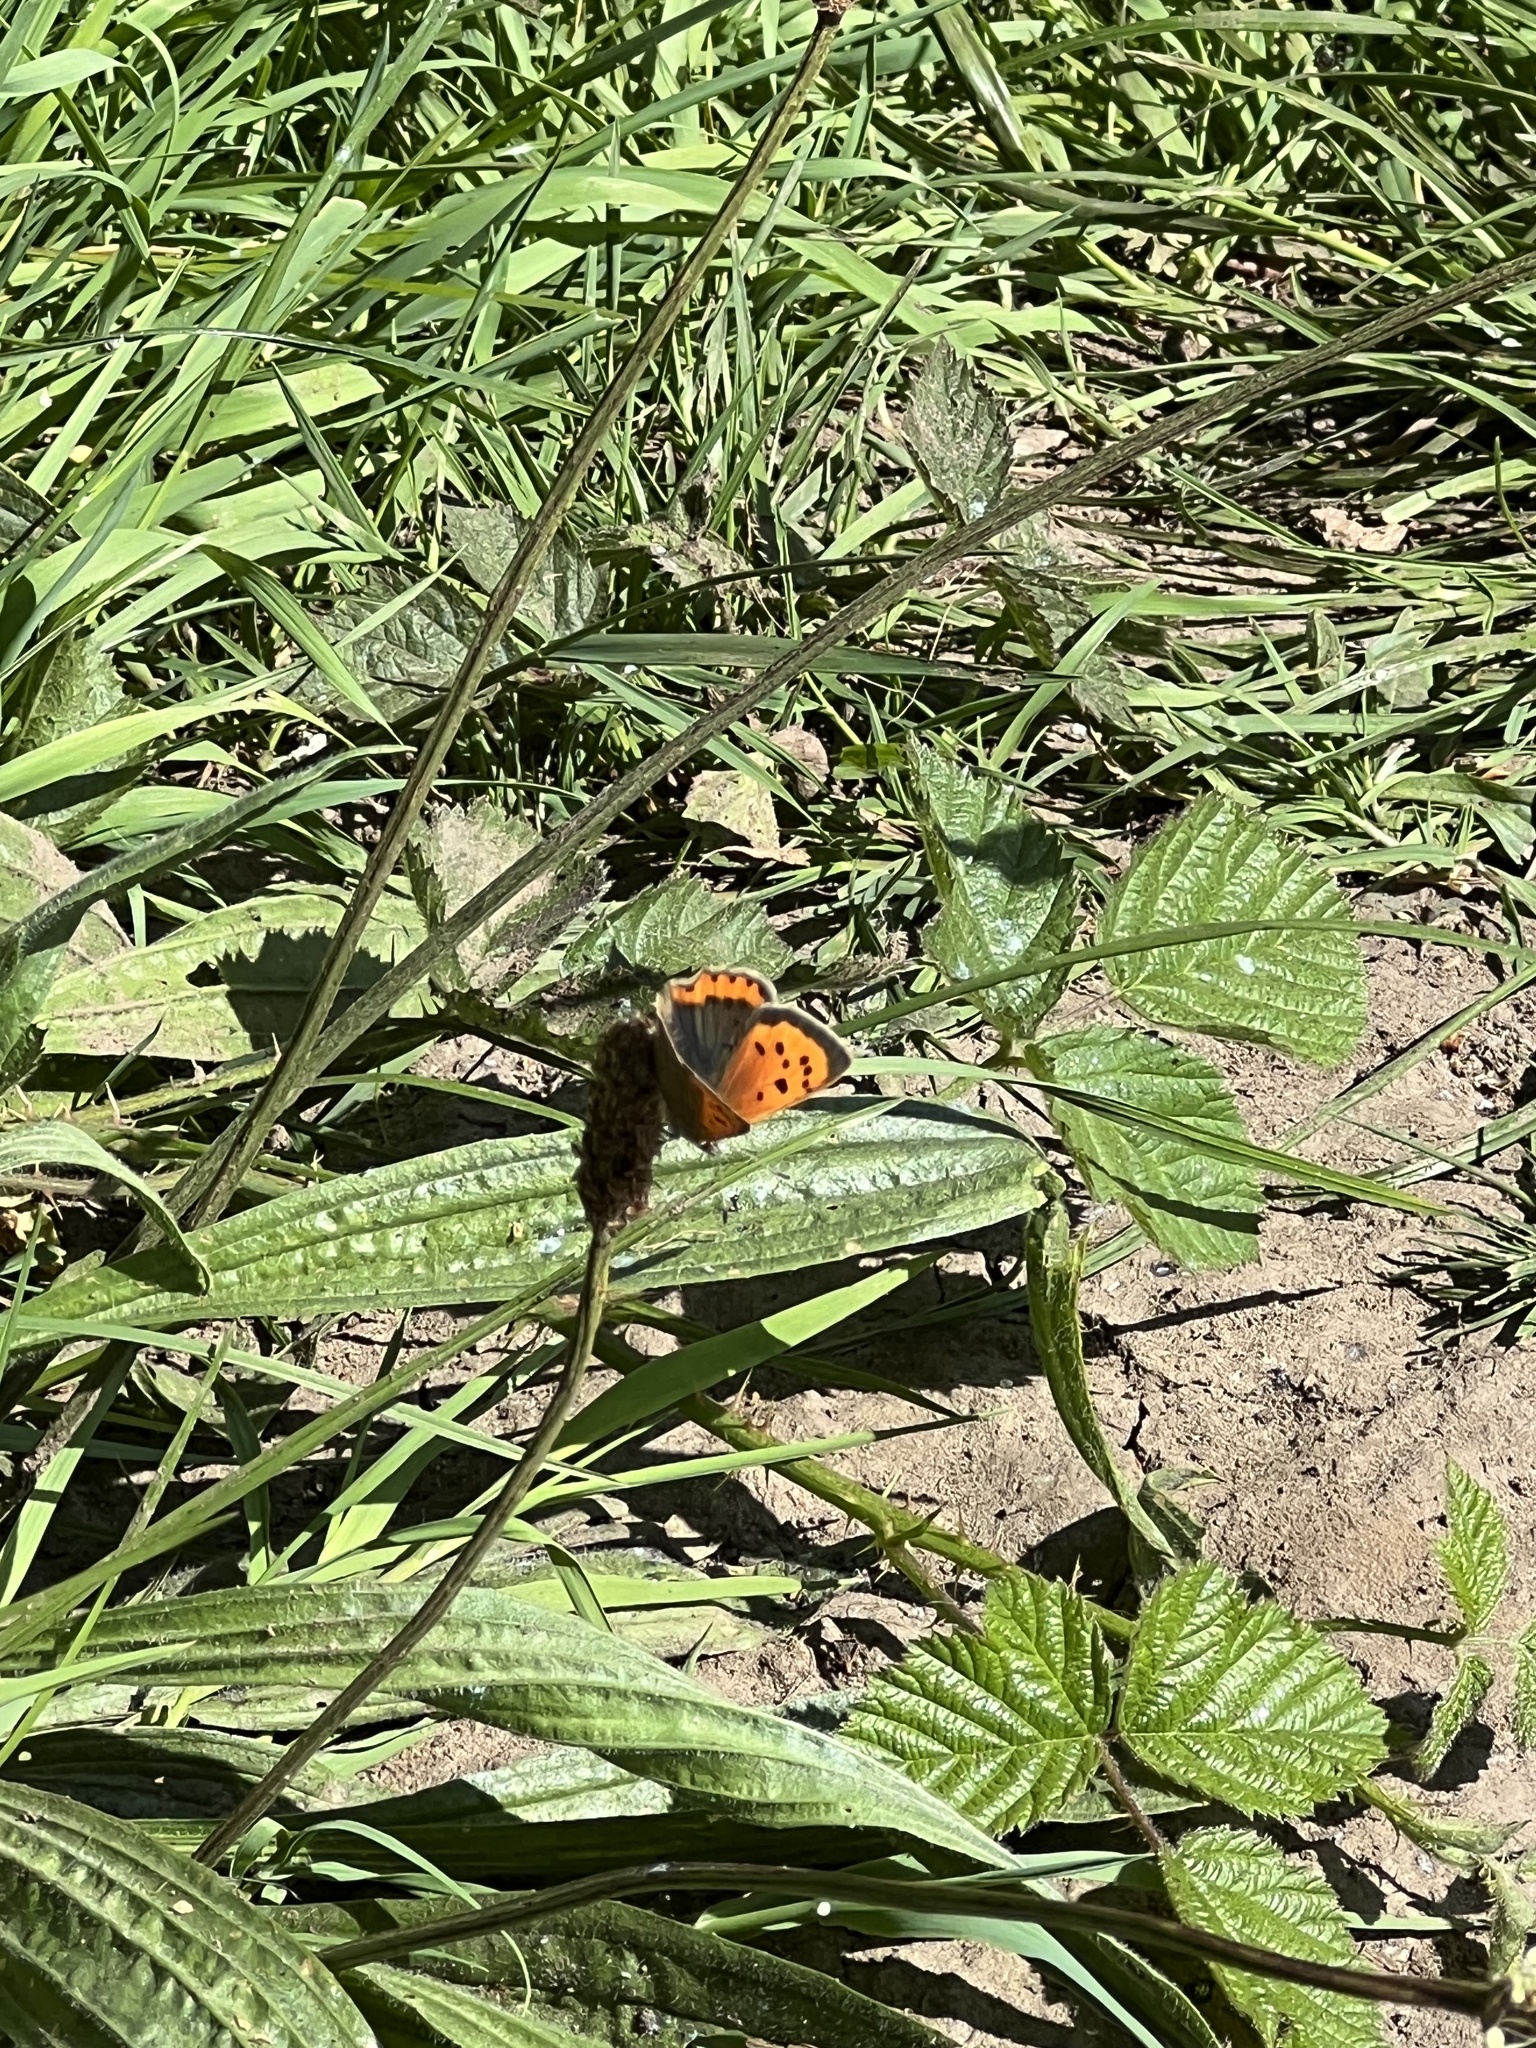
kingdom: Animalia
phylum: Arthropoda
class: Insecta
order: Lepidoptera
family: Lycaenidae
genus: Lycaena
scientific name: Lycaena phlaeas
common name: Small copper
